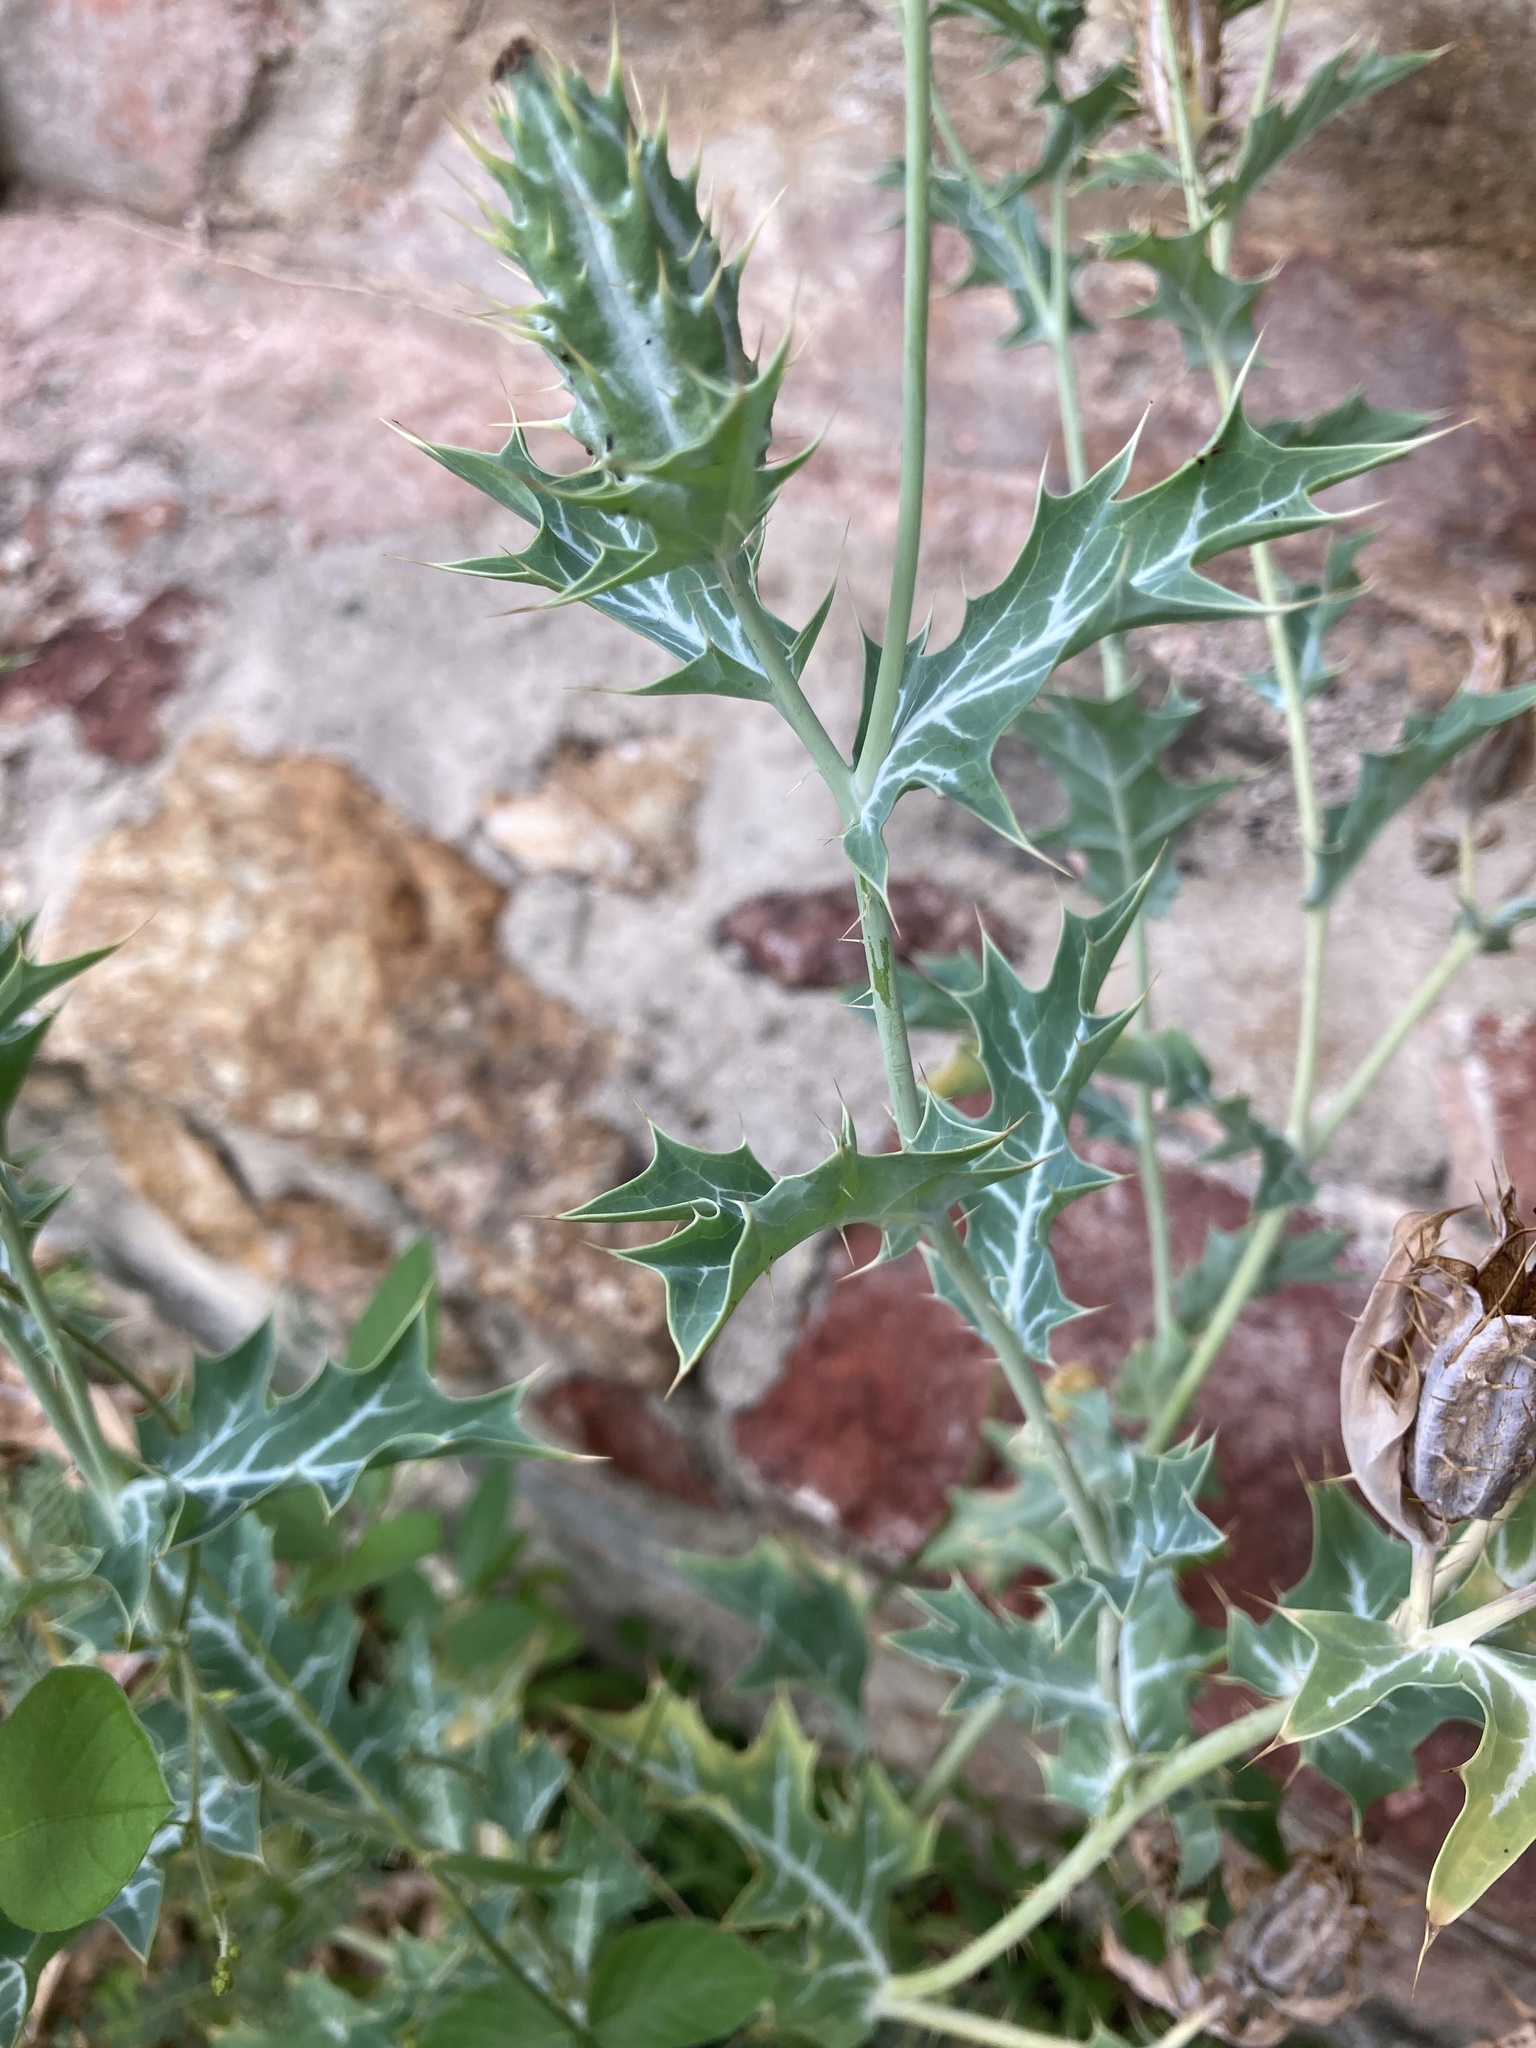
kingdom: Plantae
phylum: Tracheophyta
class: Magnoliopsida
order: Ranunculales
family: Papaveraceae
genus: Argemone
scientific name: Argemone mexicana
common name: Mexican poppy
